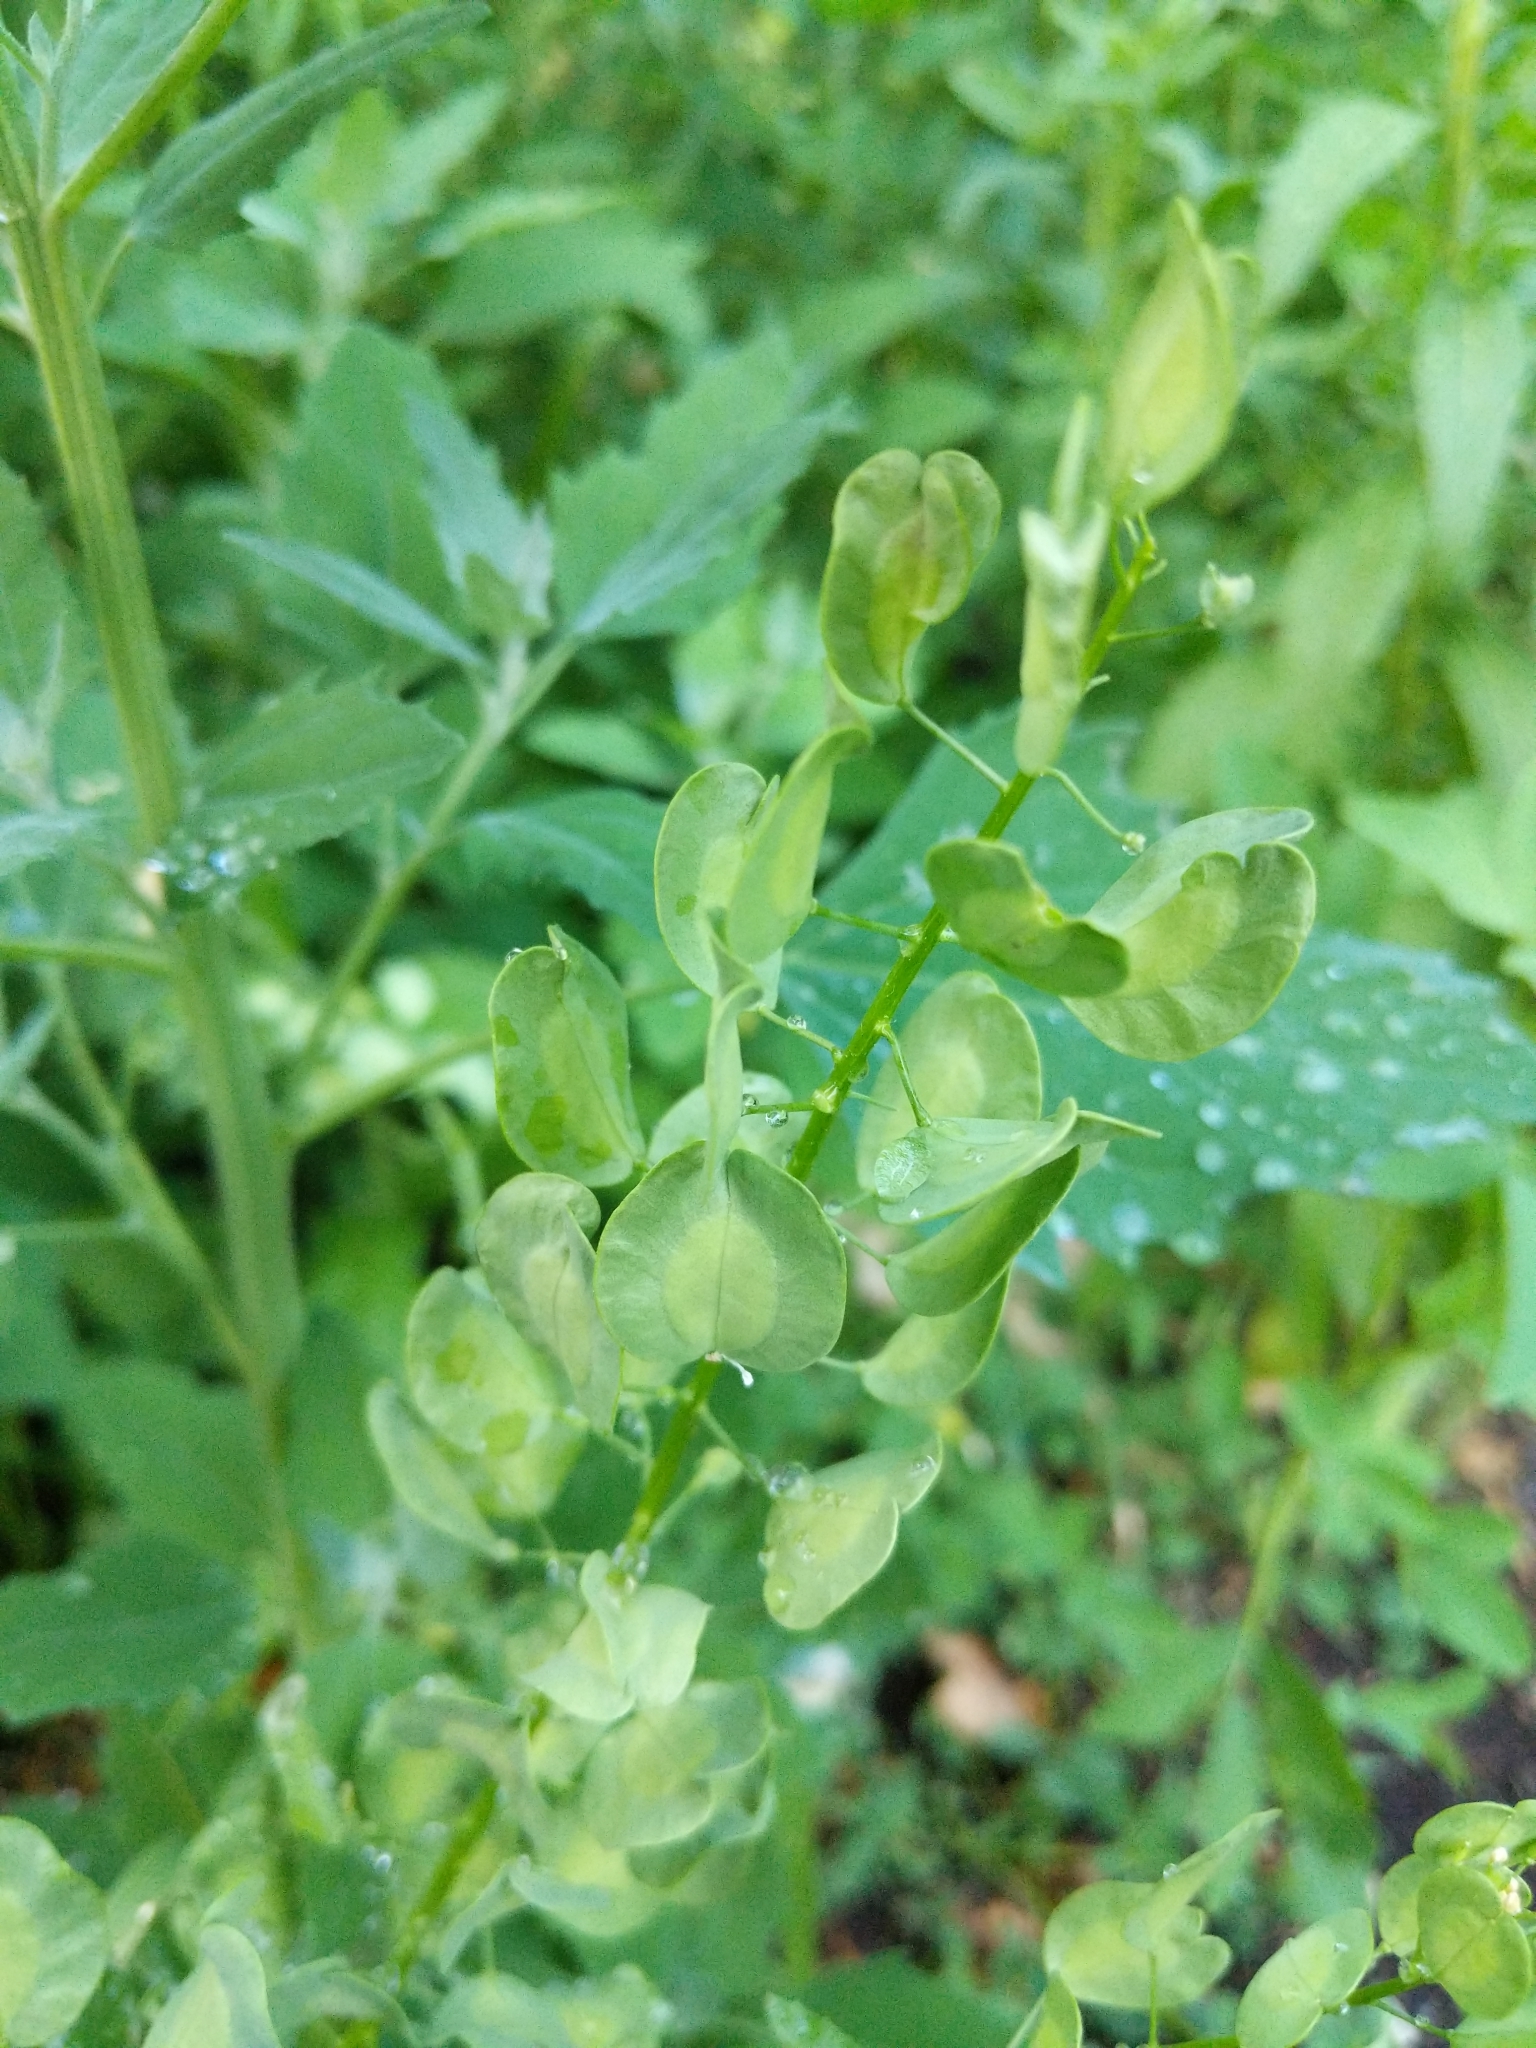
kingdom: Plantae
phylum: Tracheophyta
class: Magnoliopsida
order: Brassicales
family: Brassicaceae
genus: Thlaspi
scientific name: Thlaspi arvense
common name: Field pennycress
